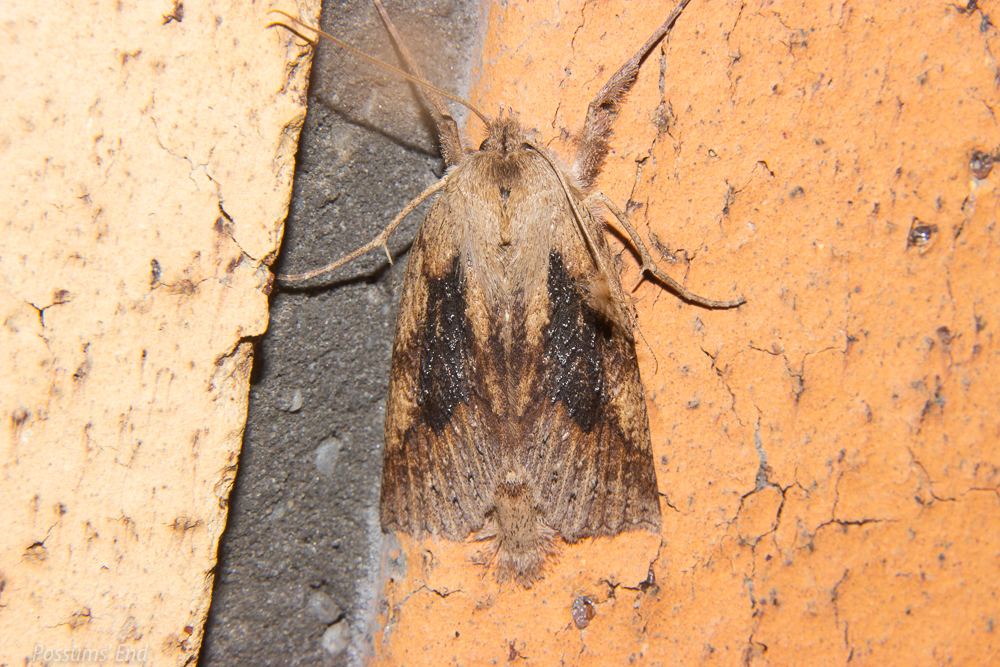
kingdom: Animalia
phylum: Arthropoda
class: Insecta
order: Lepidoptera
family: Geometridae
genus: Declana
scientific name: Declana leptomera
